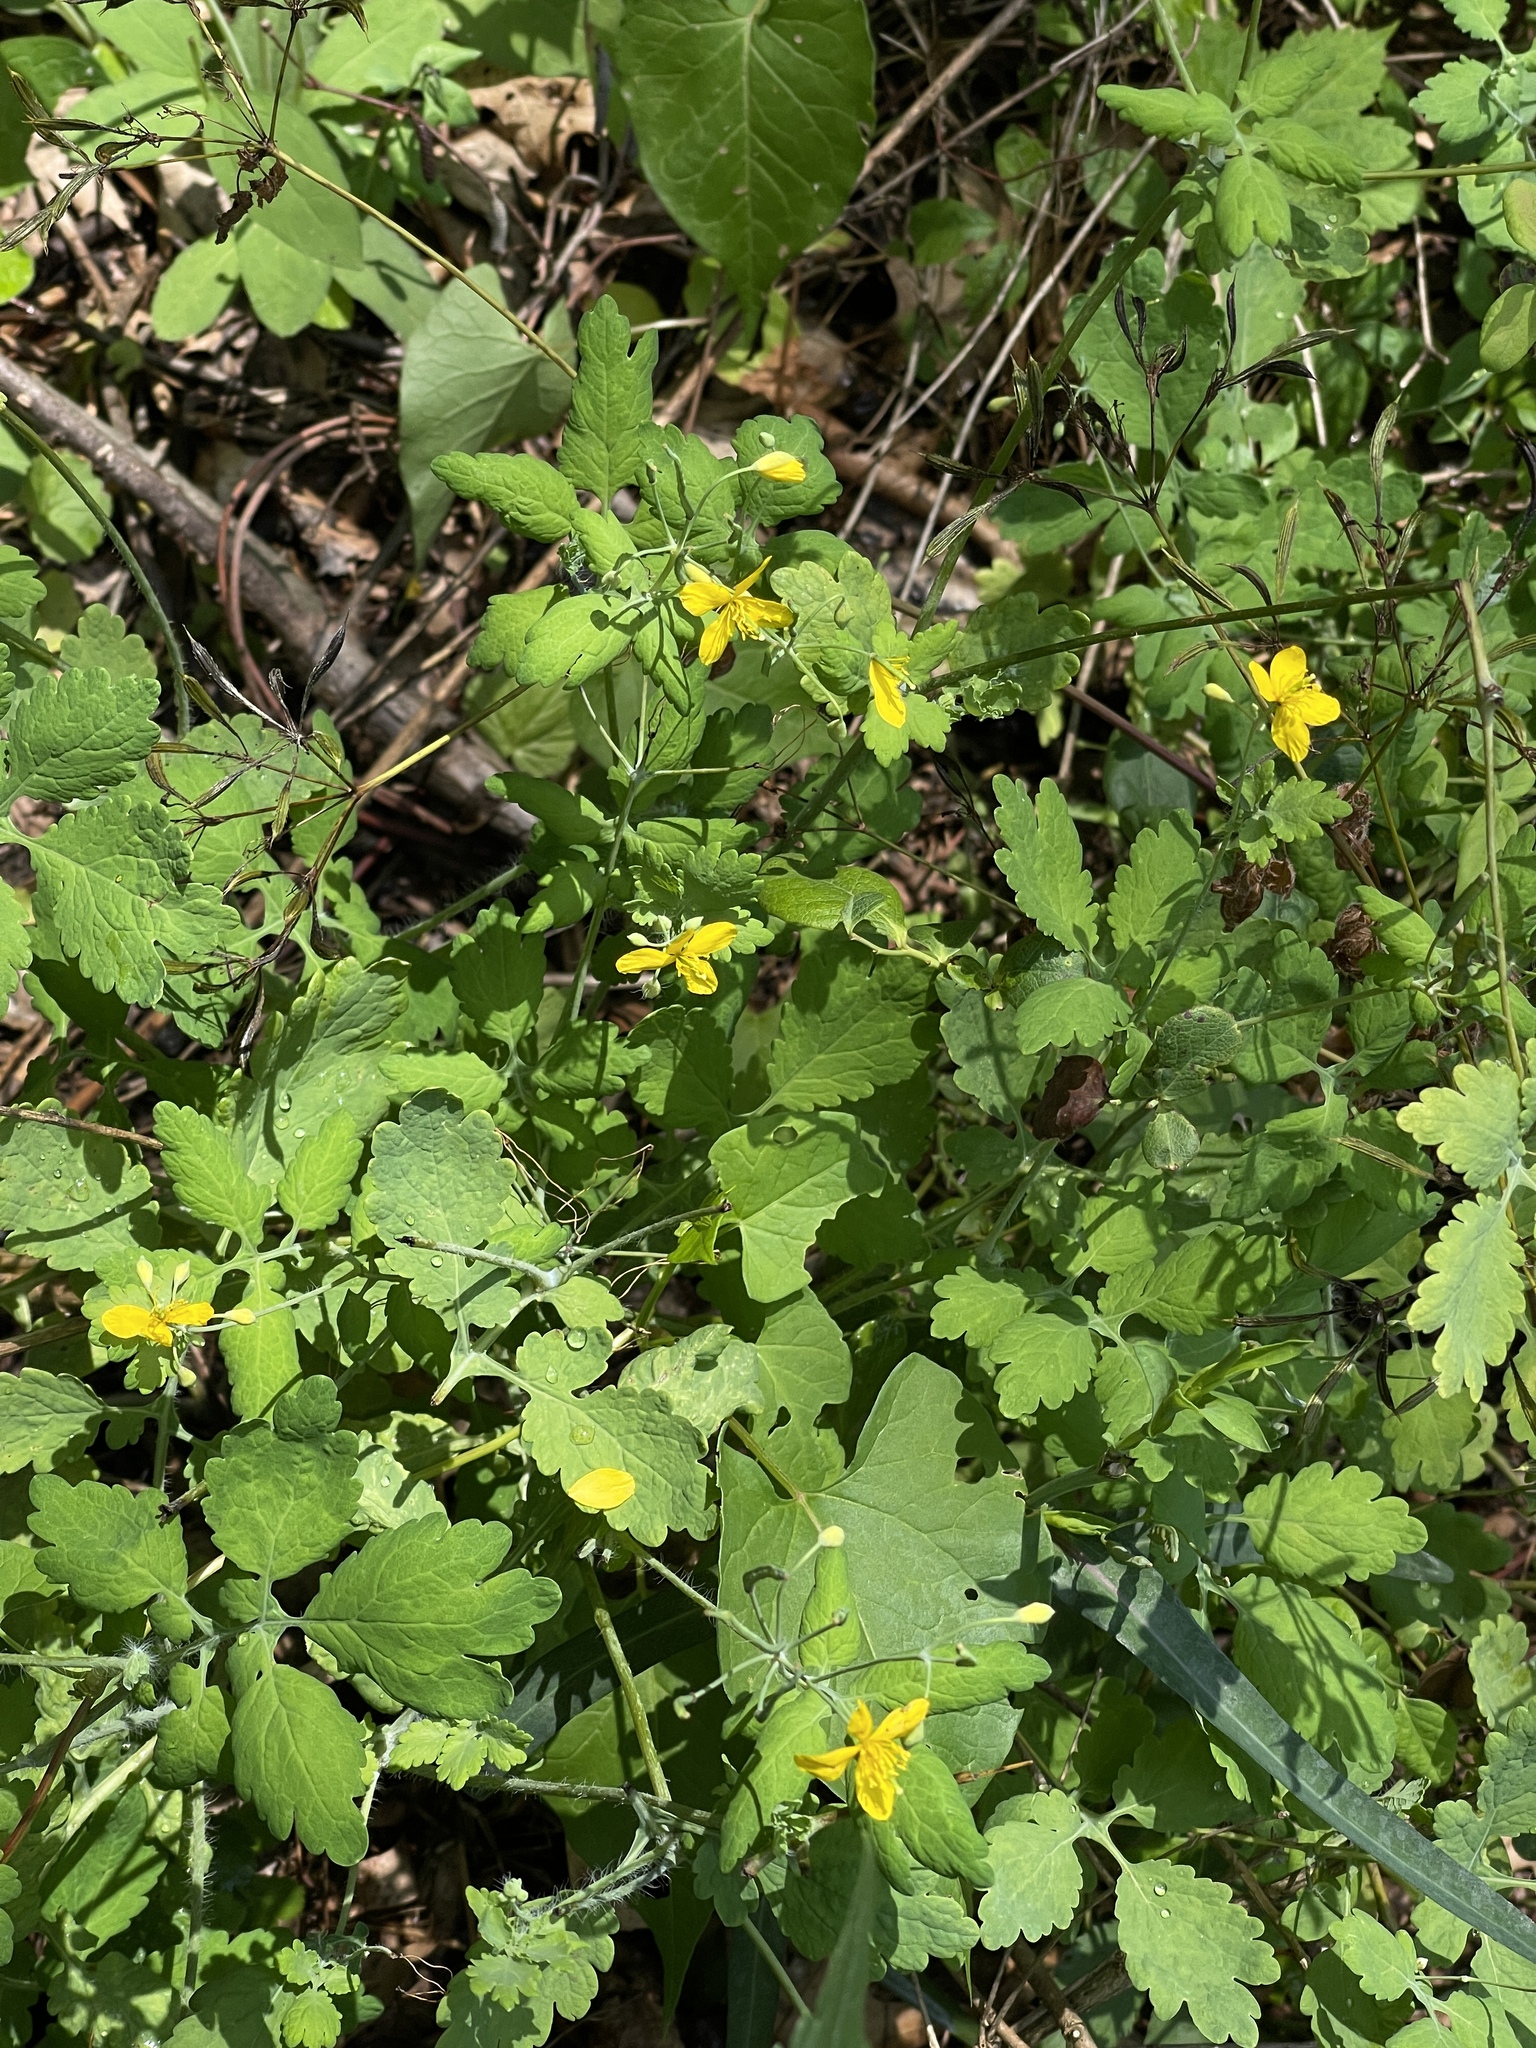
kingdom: Plantae
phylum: Tracheophyta
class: Magnoliopsida
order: Ranunculales
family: Papaveraceae
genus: Chelidonium
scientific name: Chelidonium majus
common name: Greater celandine
